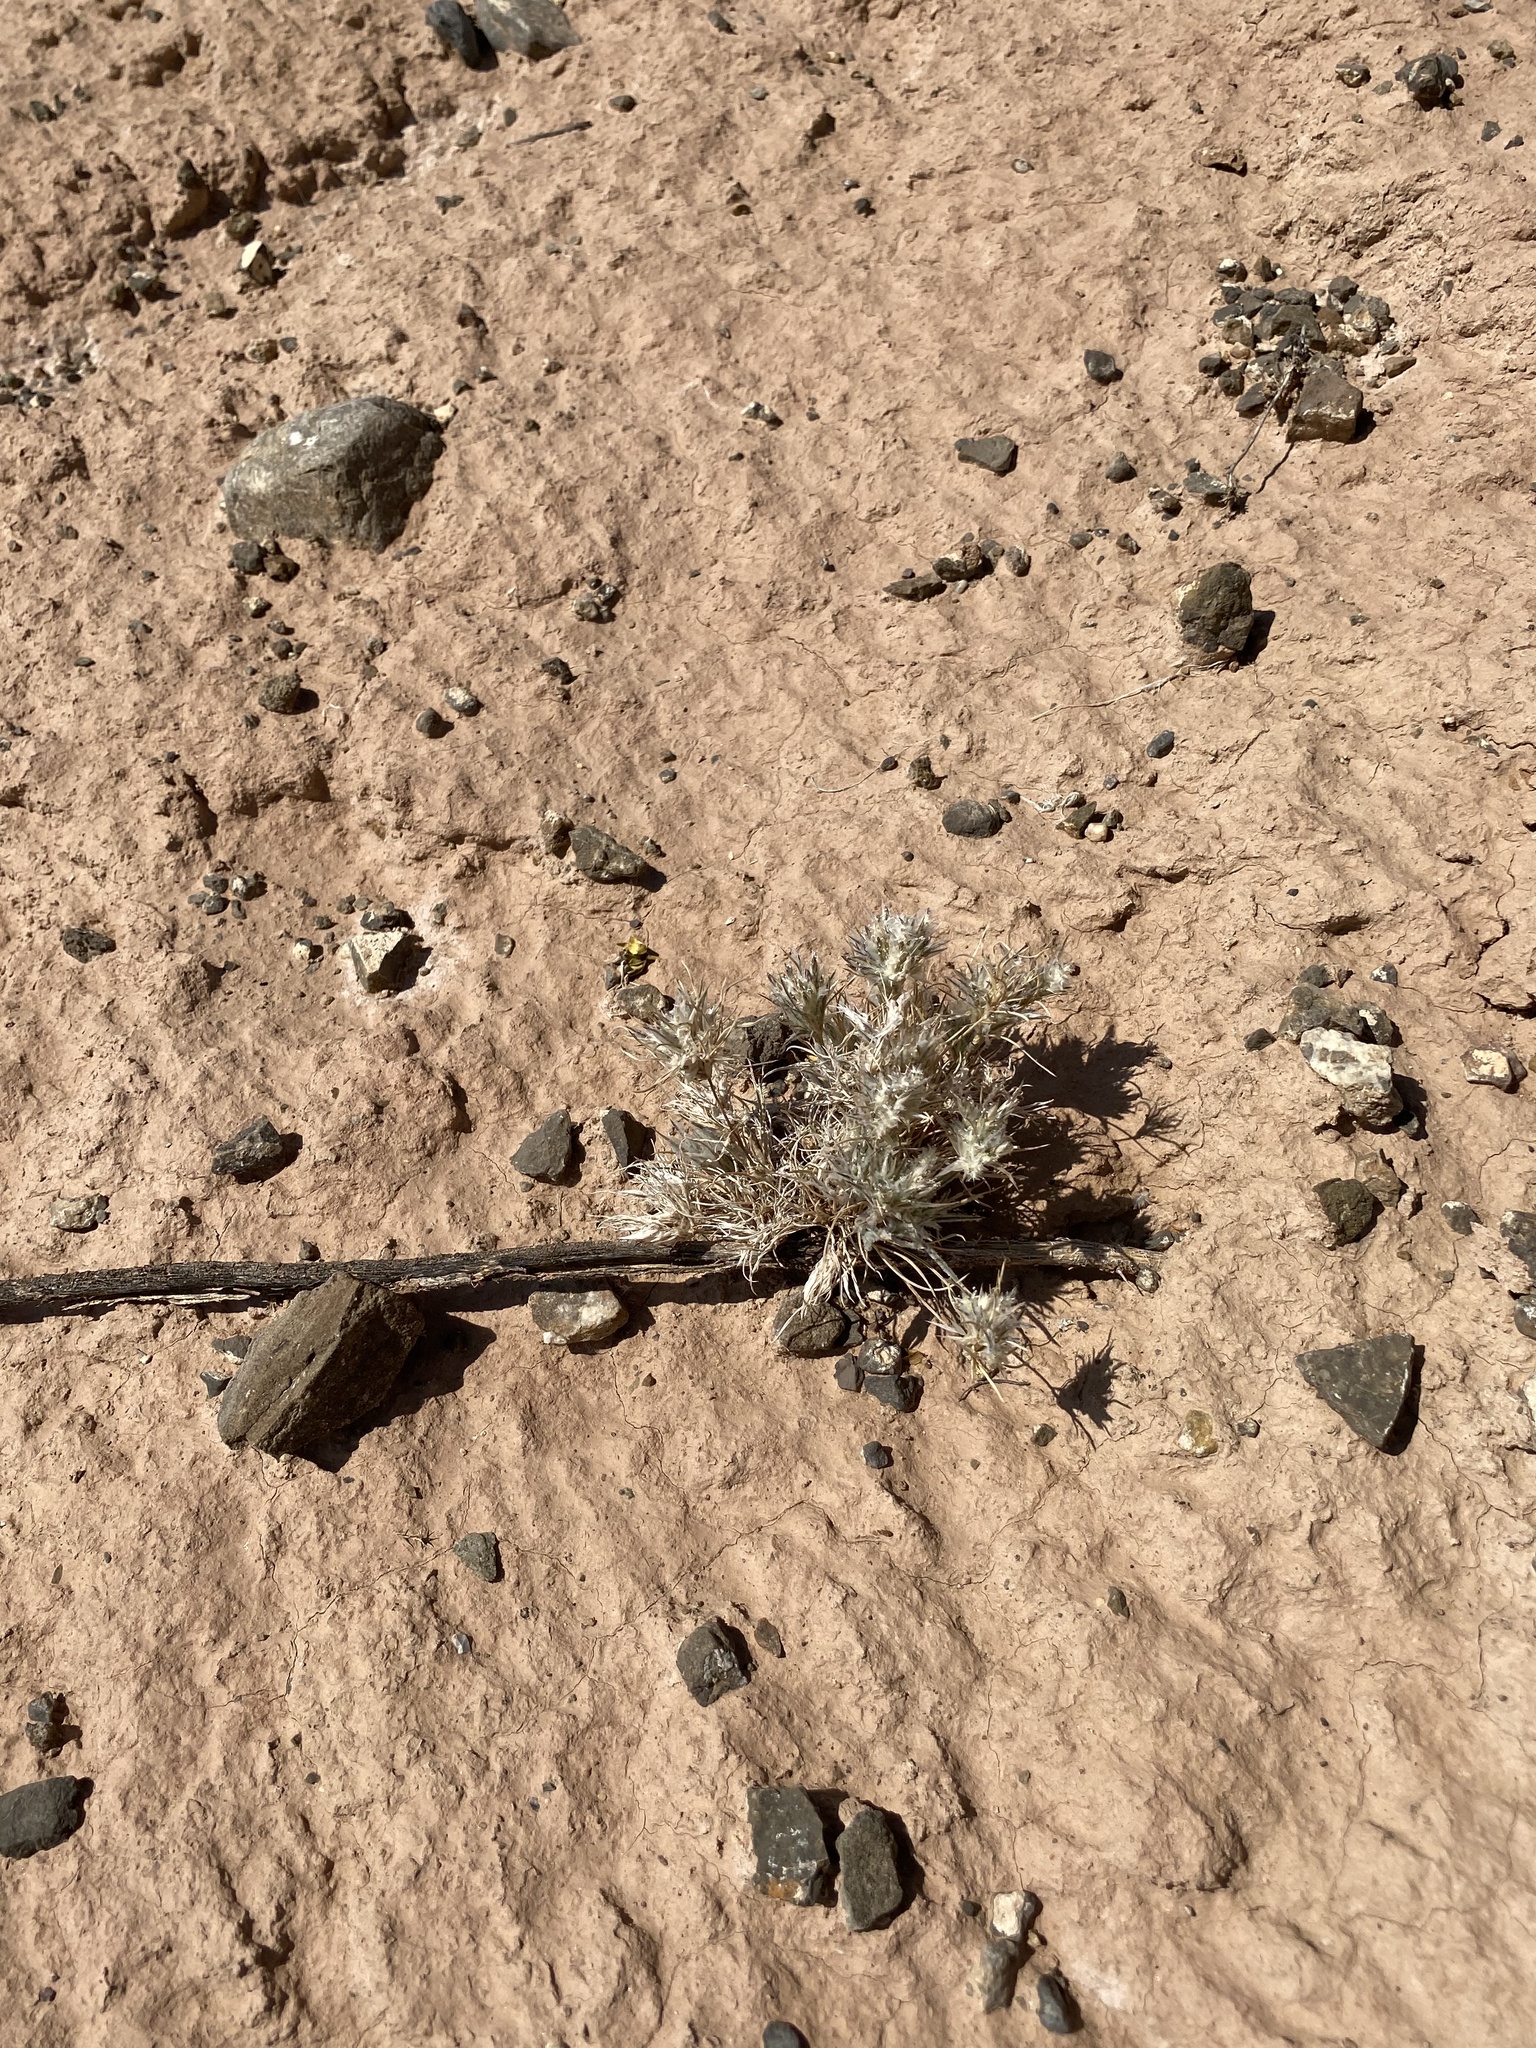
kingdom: Plantae
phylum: Tracheophyta
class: Liliopsida
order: Poales
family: Poaceae
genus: Dasyochloa
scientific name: Dasyochloa pulchella
